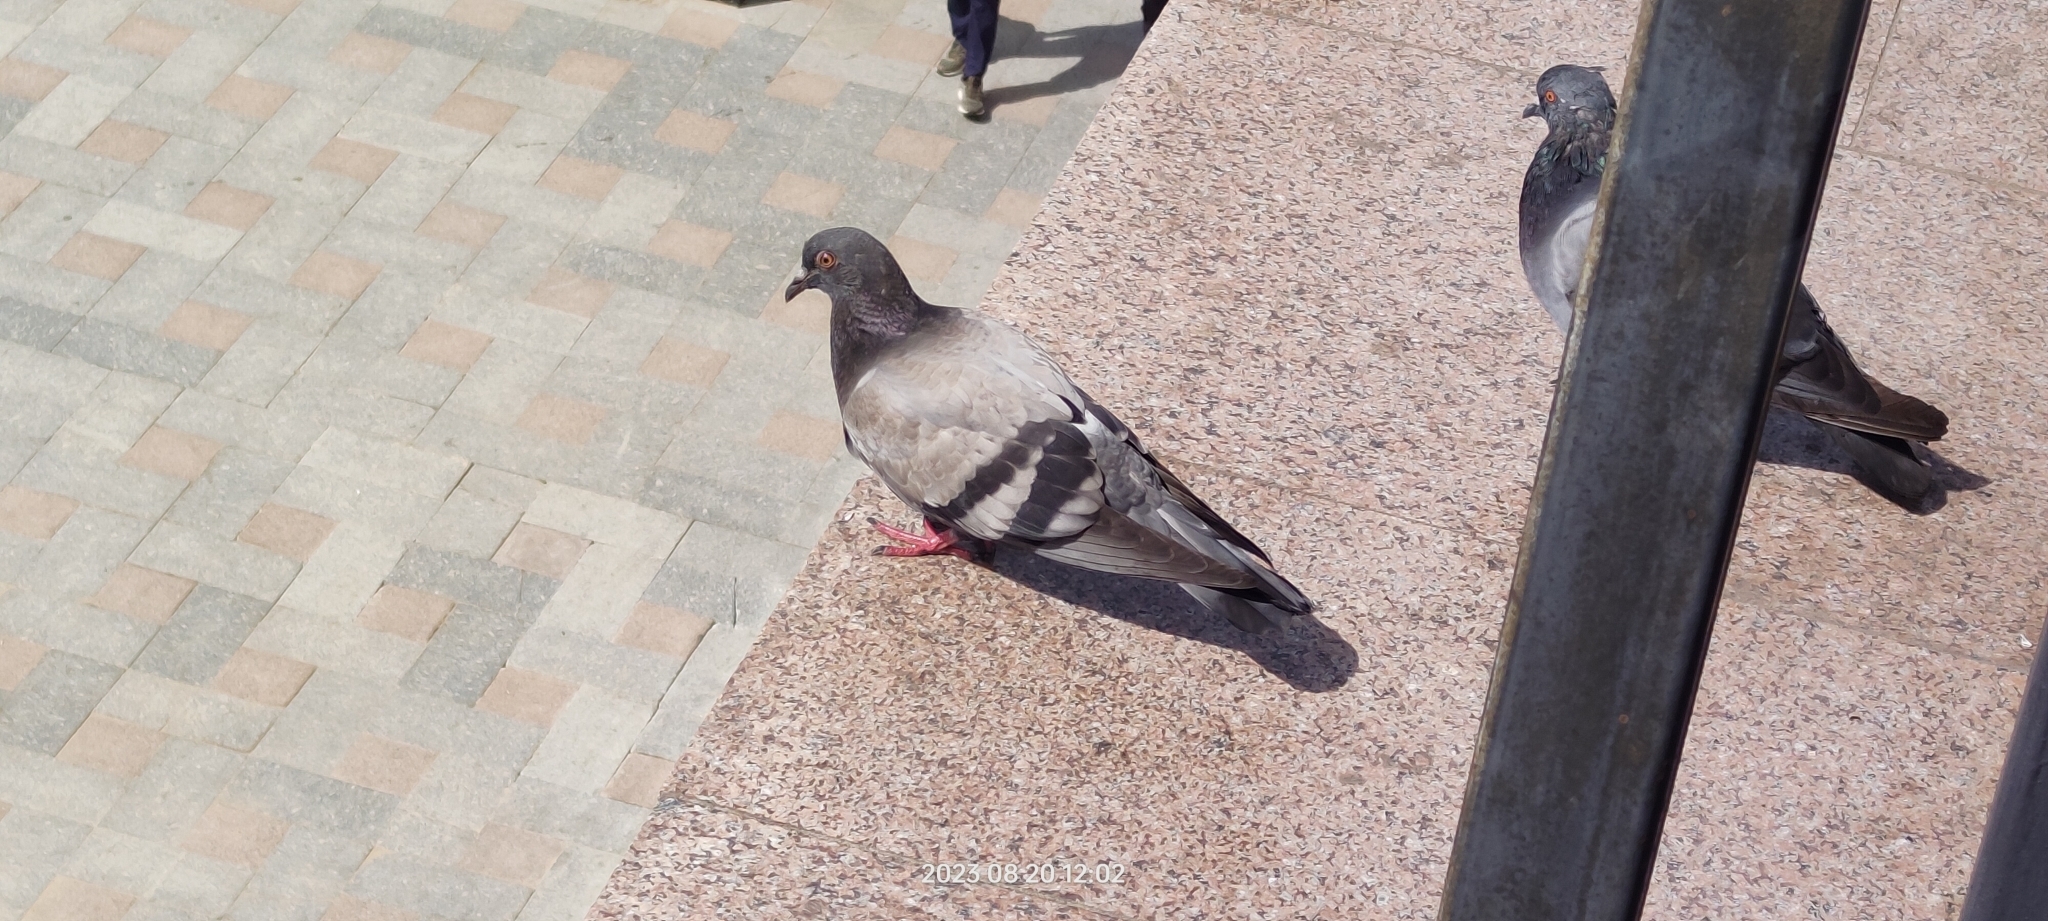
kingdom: Animalia
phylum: Chordata
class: Aves
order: Columbiformes
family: Columbidae
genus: Columba
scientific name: Columba livia
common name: Rock pigeon
